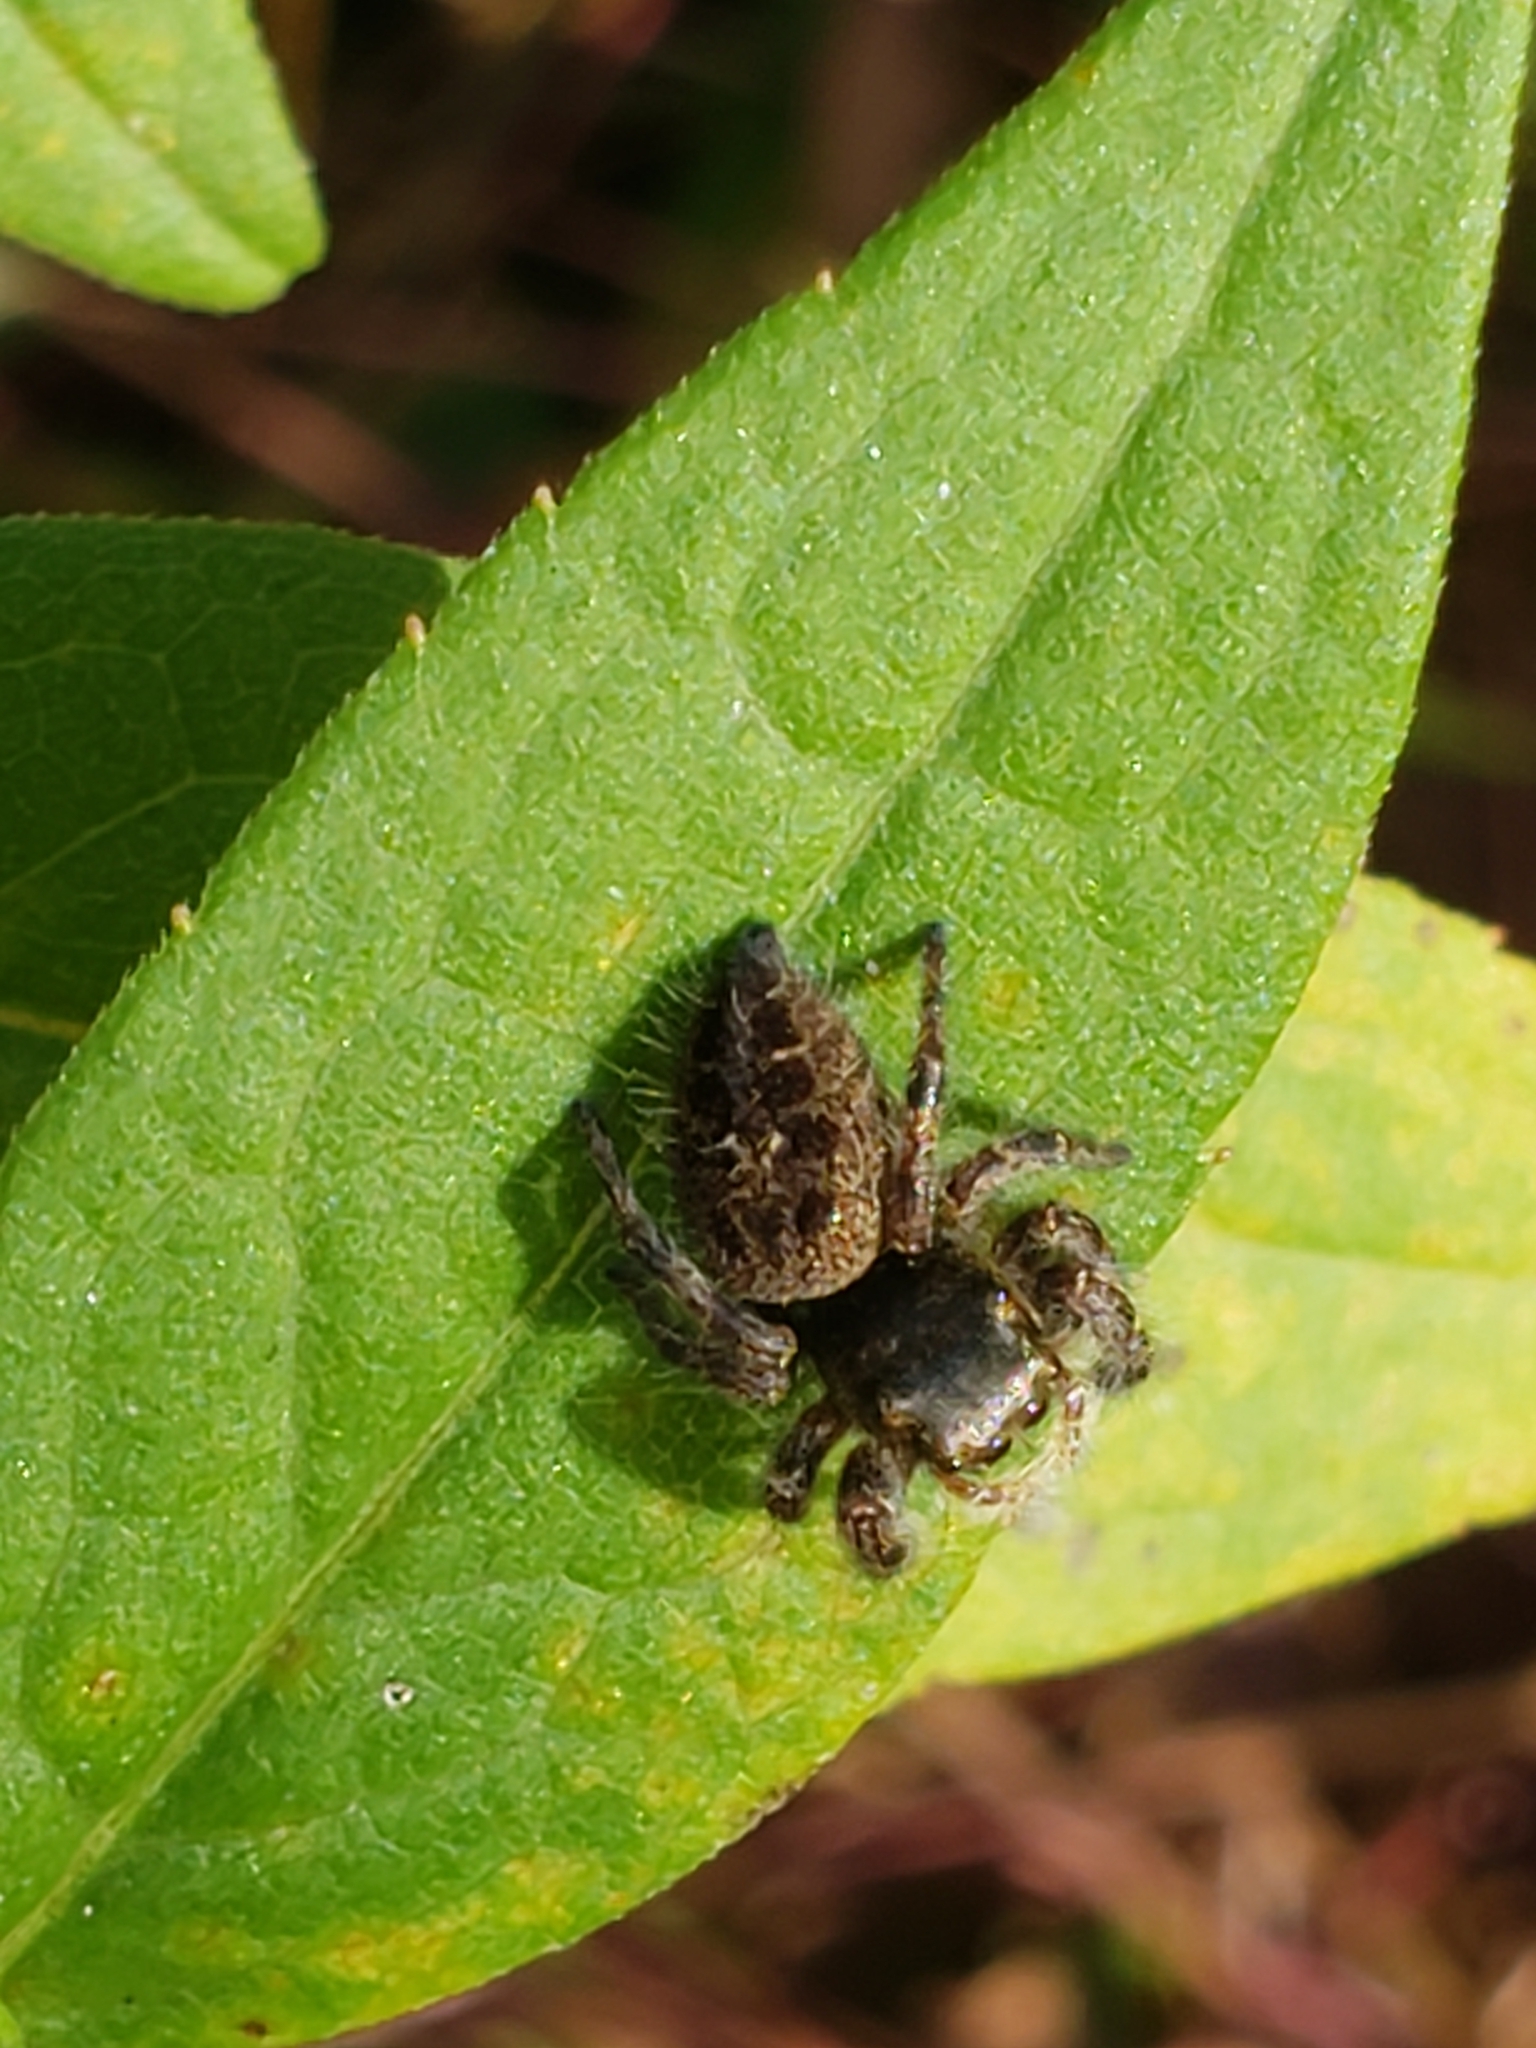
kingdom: Animalia
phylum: Arthropoda
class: Arachnida
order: Araneae
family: Salticidae
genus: Phidippus
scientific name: Phidippus princeps
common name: Grayish jumping spider
